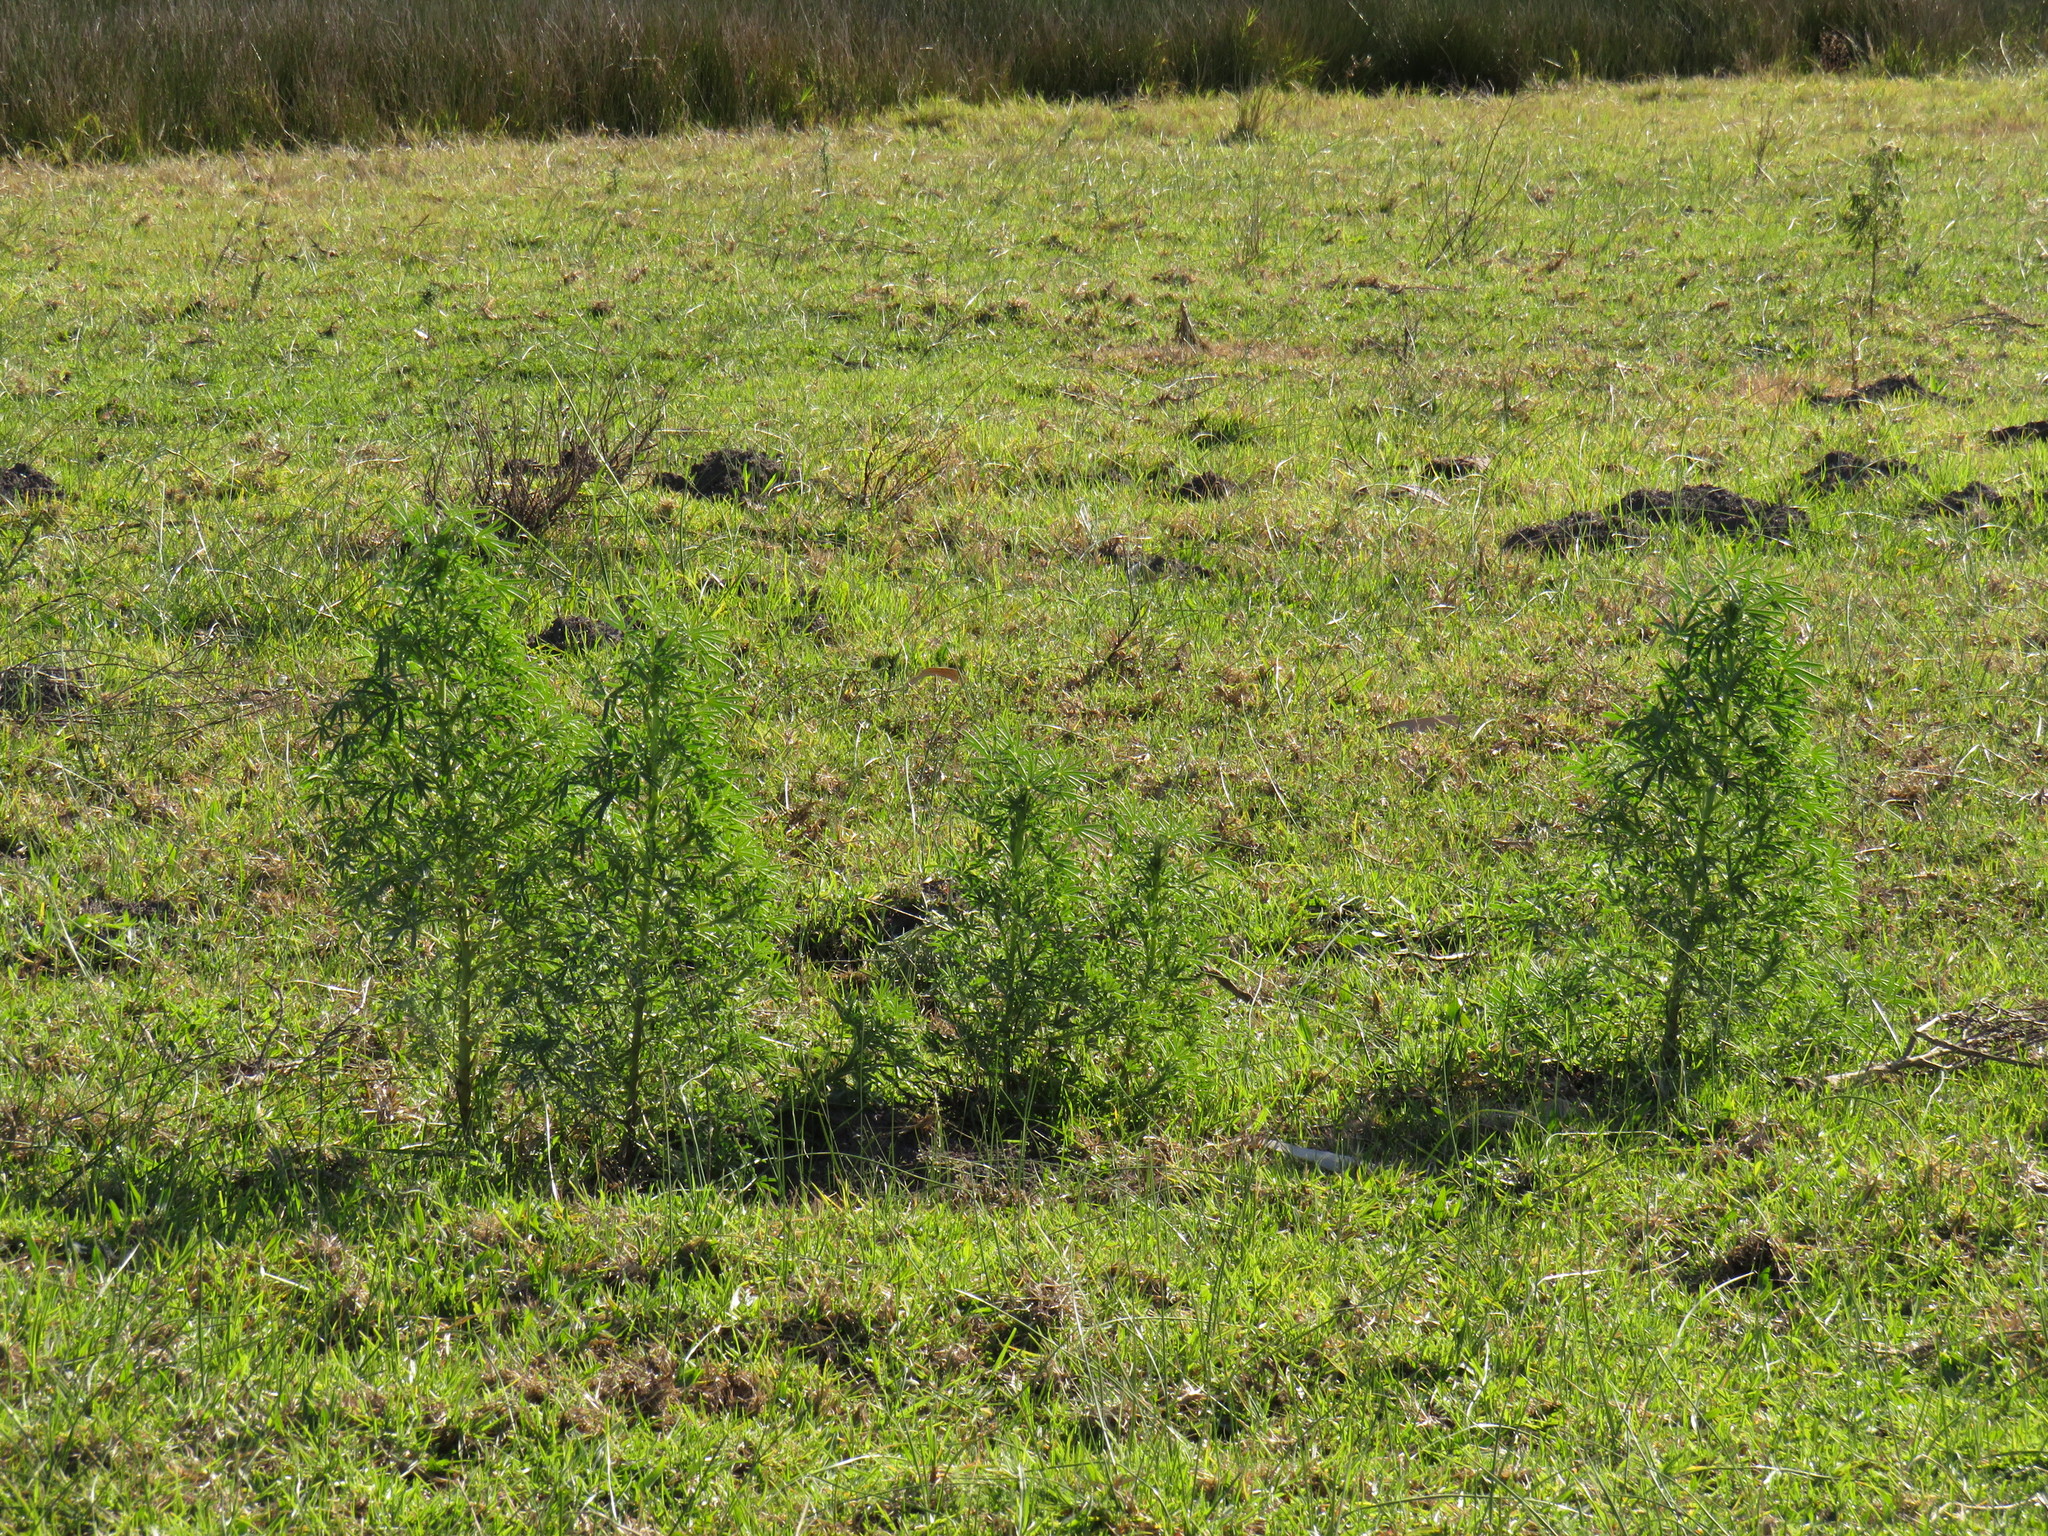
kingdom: Plantae
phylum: Tracheophyta
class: Magnoliopsida
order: Fabales
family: Fabaceae
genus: Lupinus
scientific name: Lupinus angustifolius
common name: Narrow-leaved lupin
